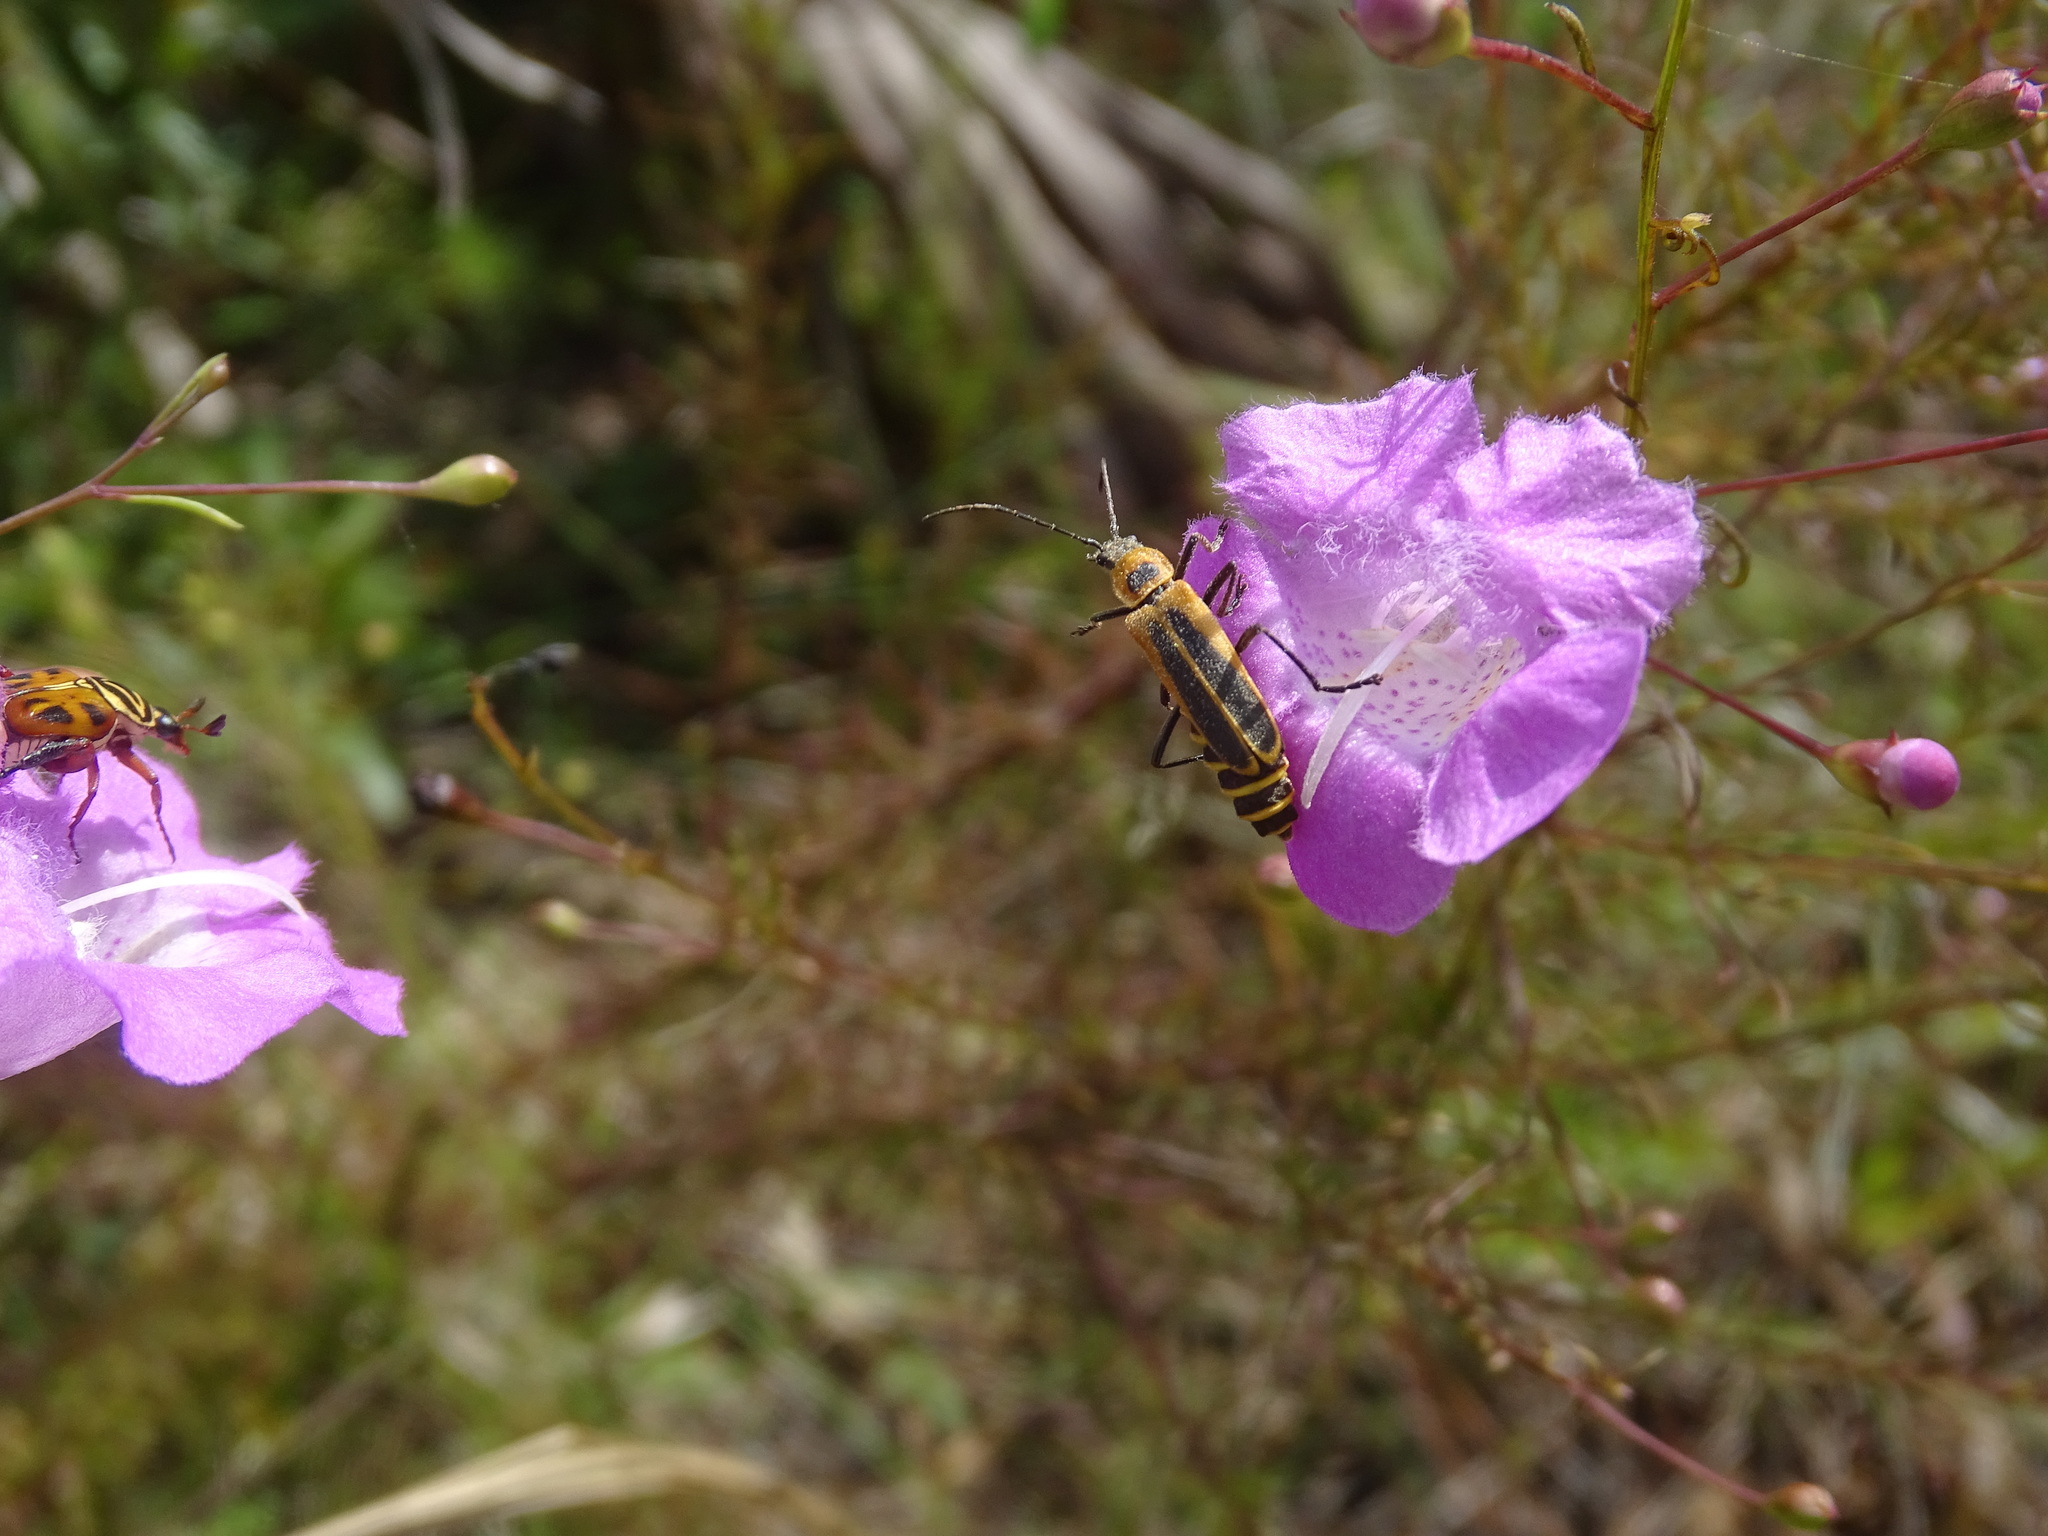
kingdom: Animalia
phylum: Arthropoda
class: Insecta
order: Coleoptera
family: Cantharidae
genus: Chauliognathus
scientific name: Chauliognathus pensylvanicus
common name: Goldenrod soldier beetle
